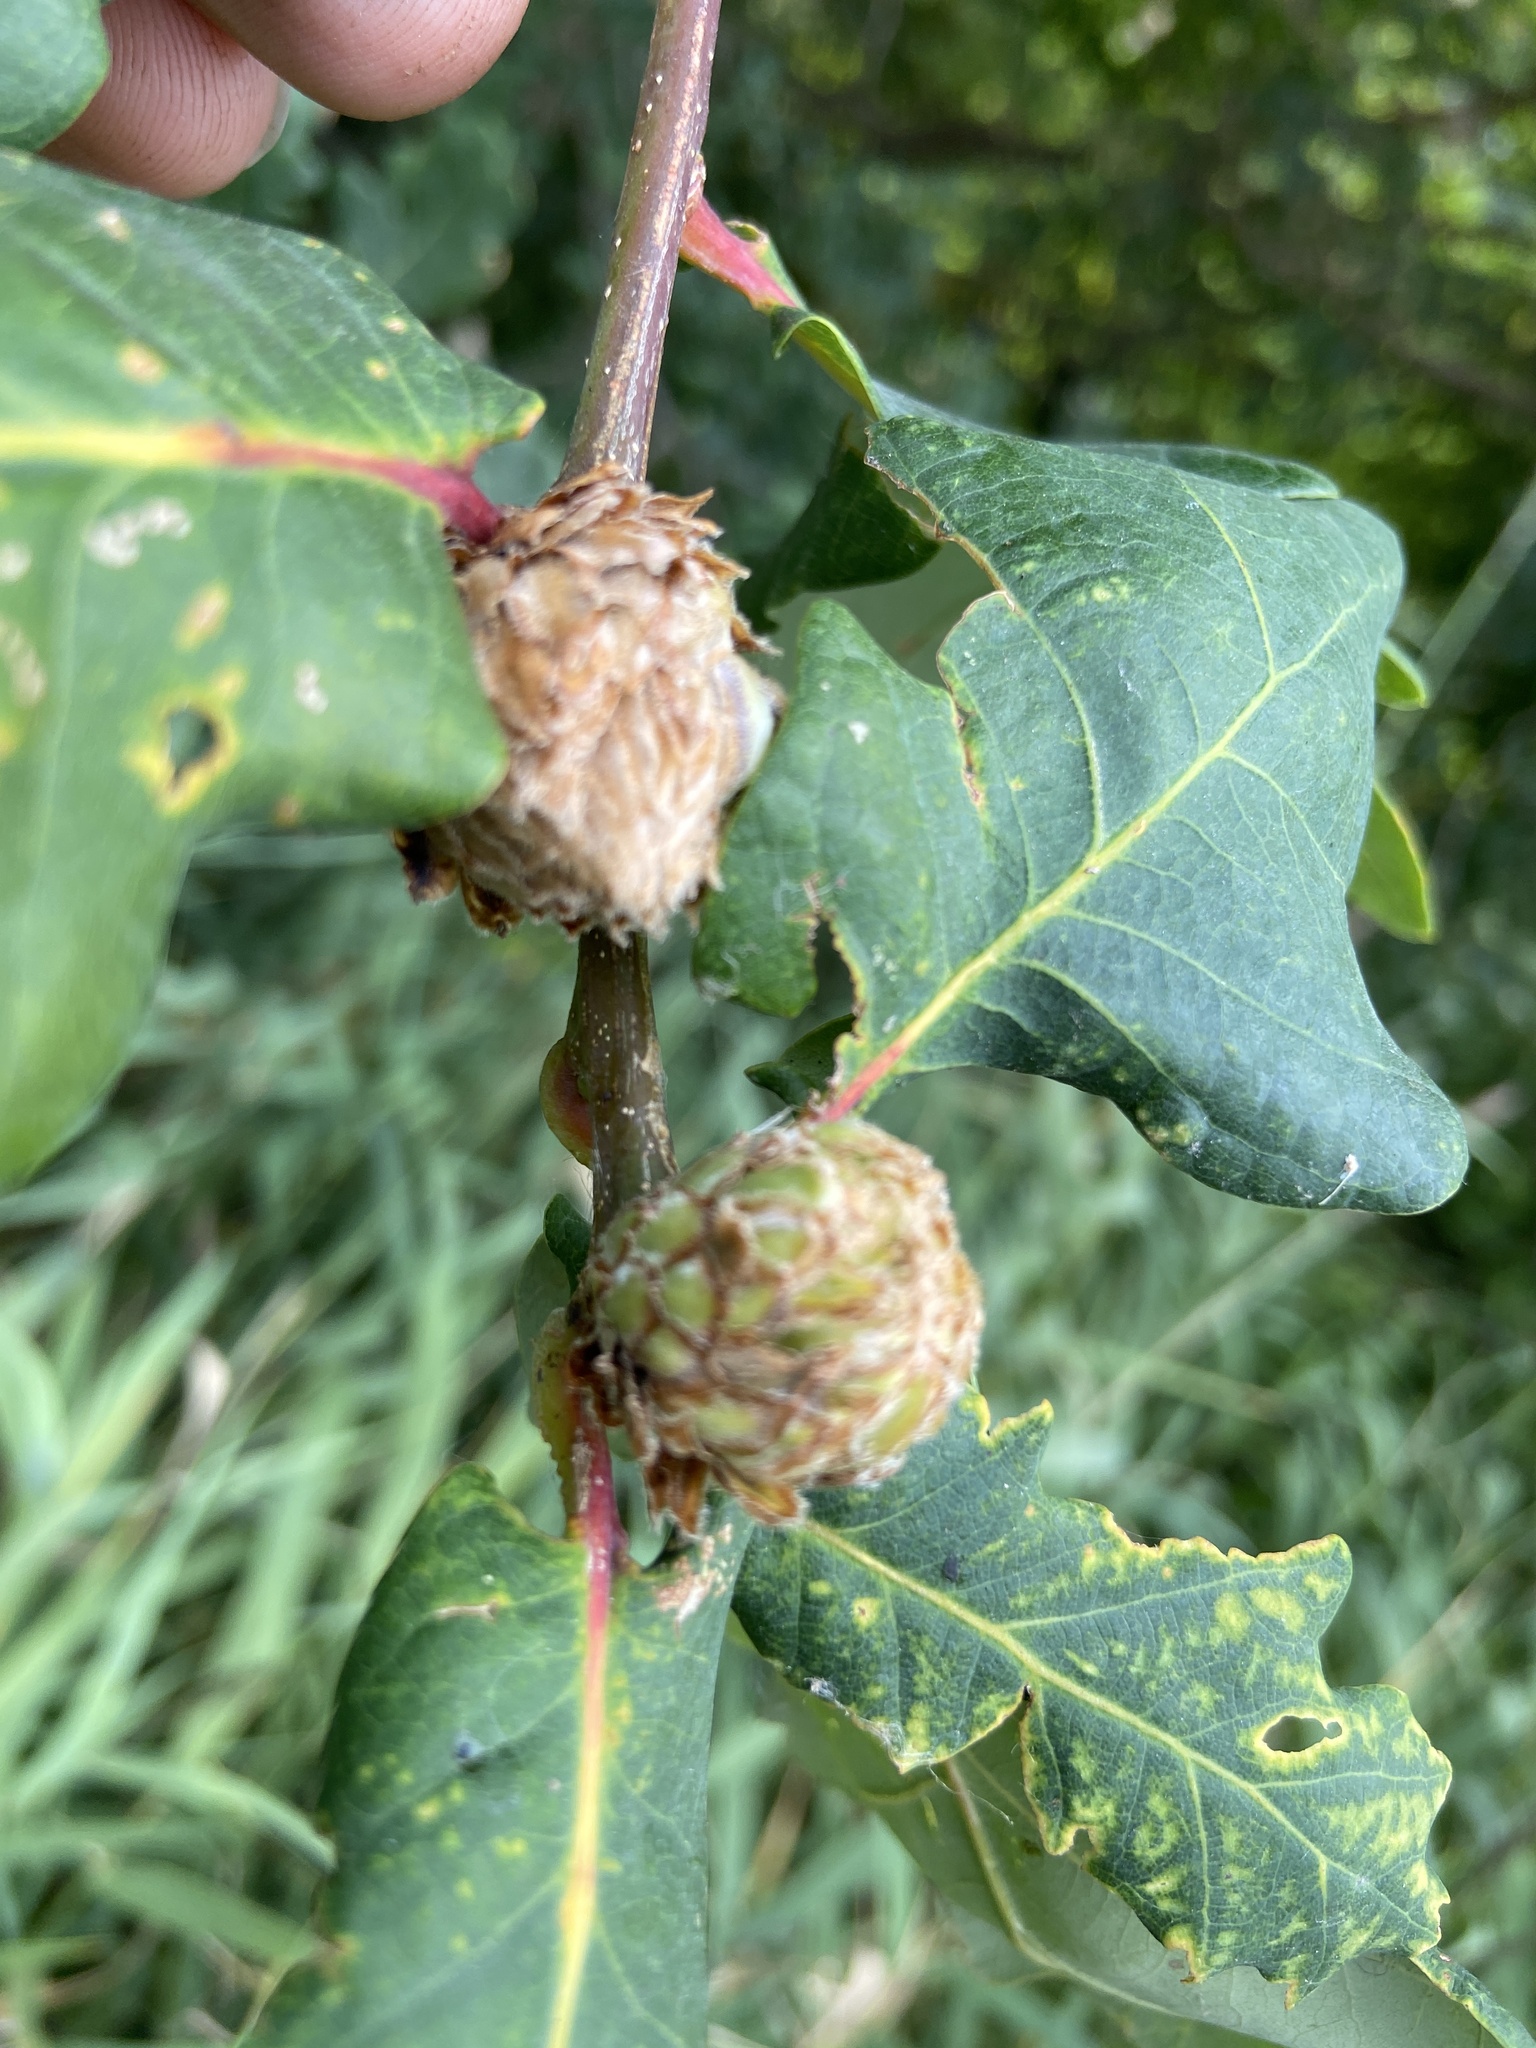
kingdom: Animalia
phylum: Arthropoda
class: Insecta
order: Hymenoptera
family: Cynipidae
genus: Andricus
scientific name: Andricus foecundatrix
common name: Artichoke gall
